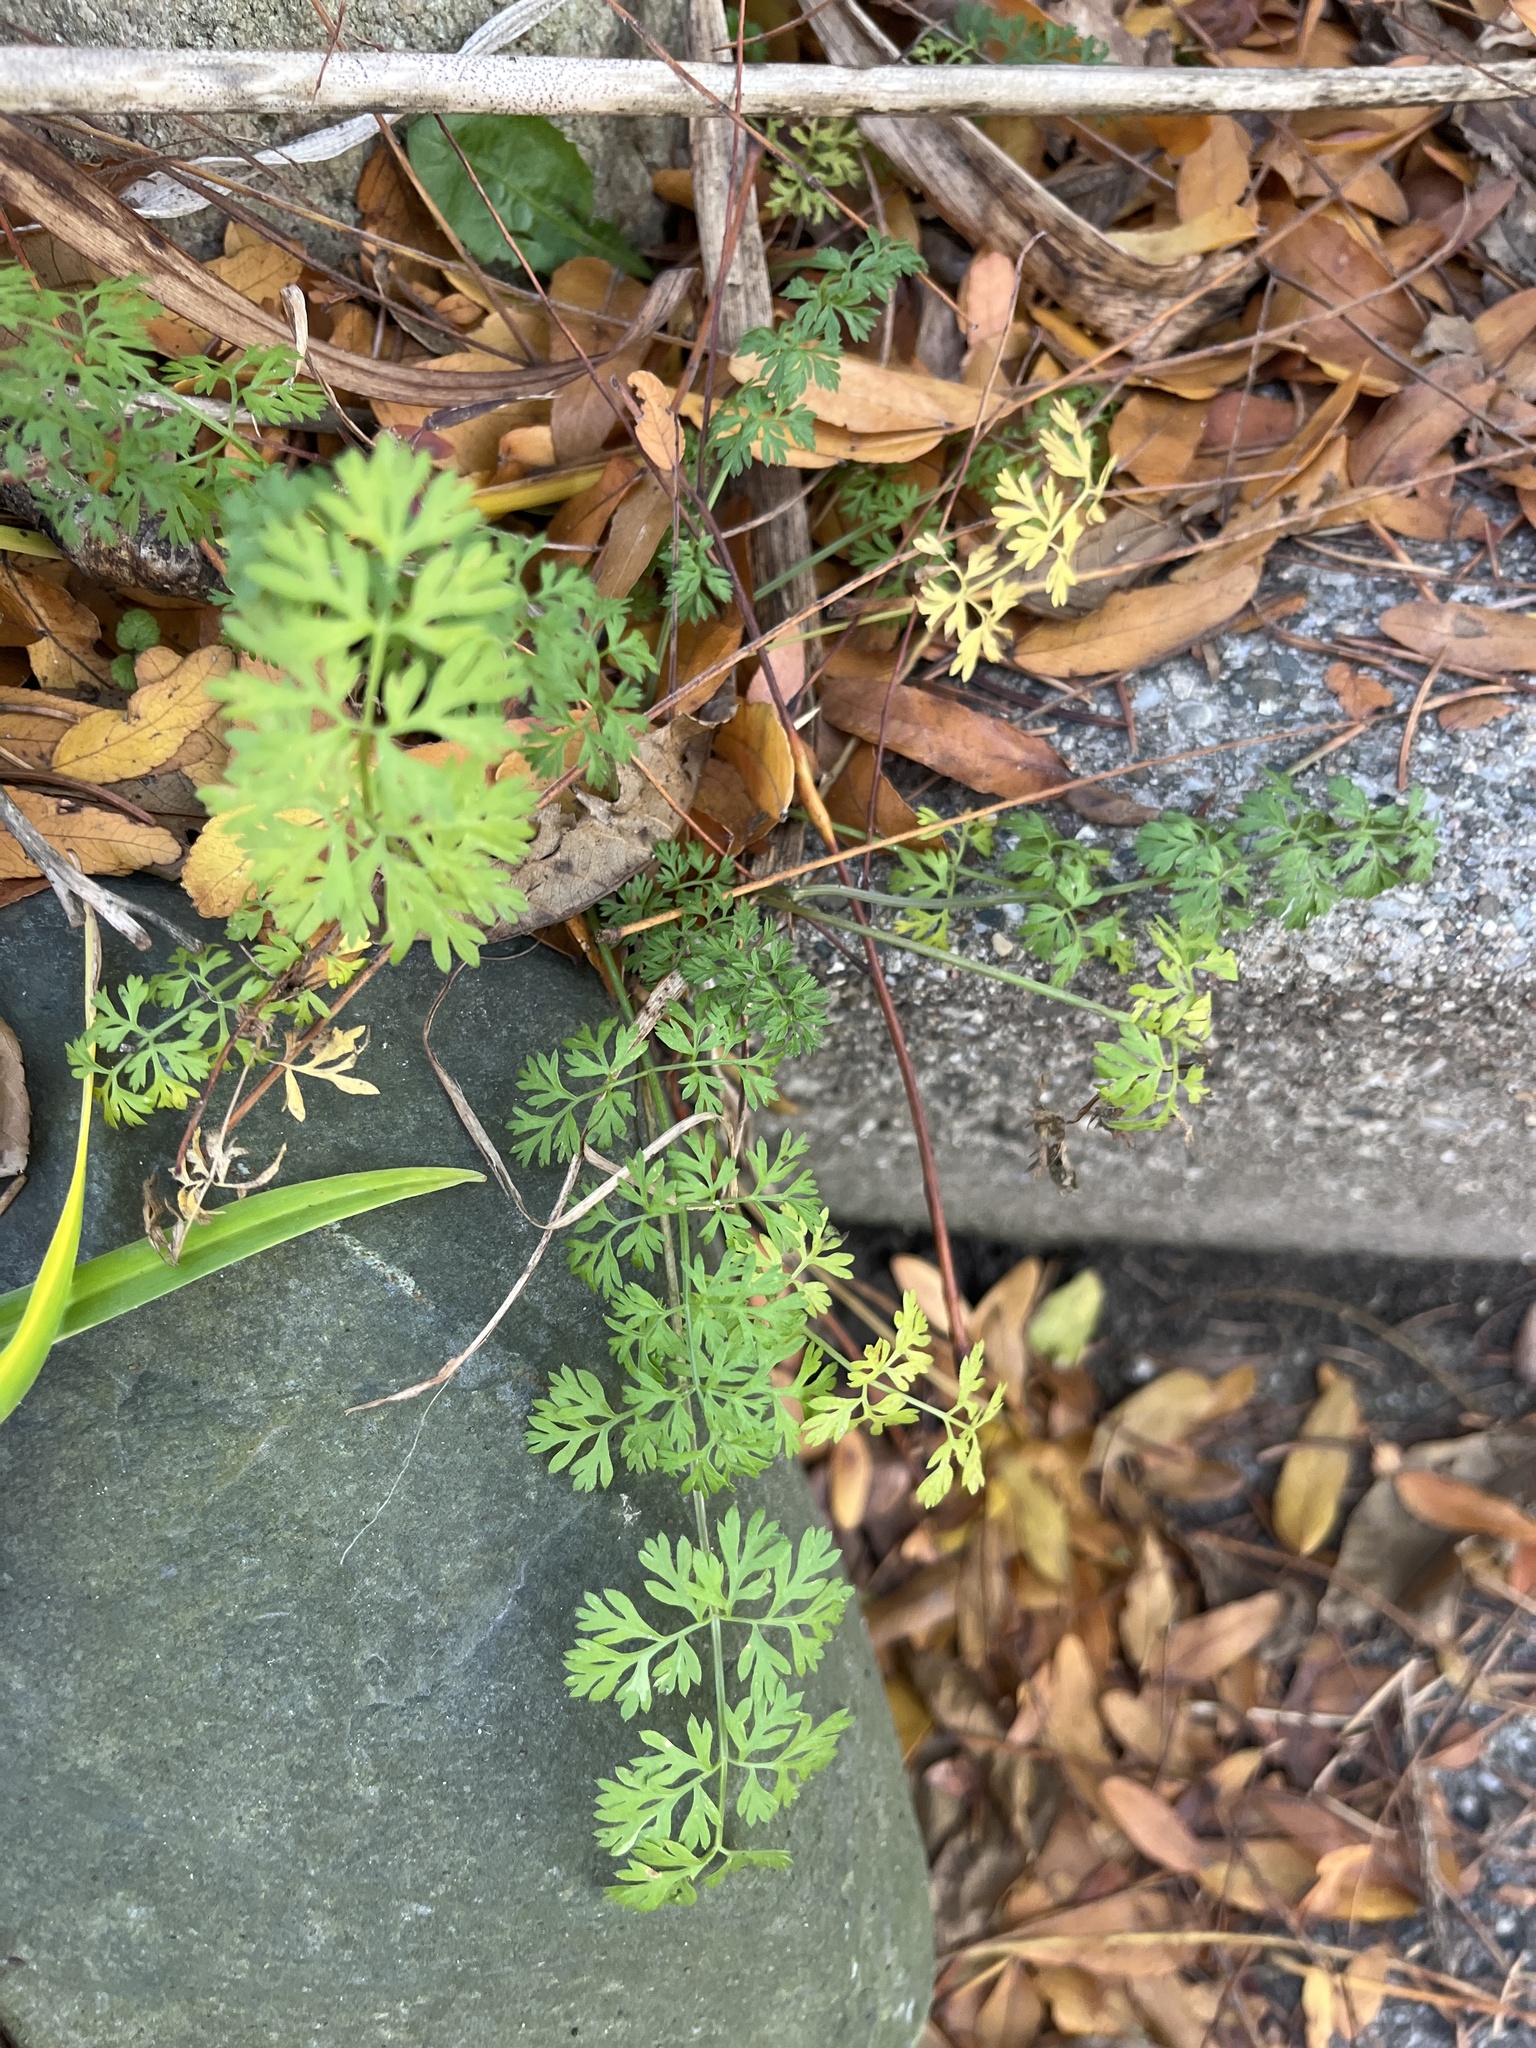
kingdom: Plantae
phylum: Tracheophyta
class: Magnoliopsida
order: Apiales
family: Apiaceae
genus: Daucus
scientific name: Daucus carota
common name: Wild carrot
